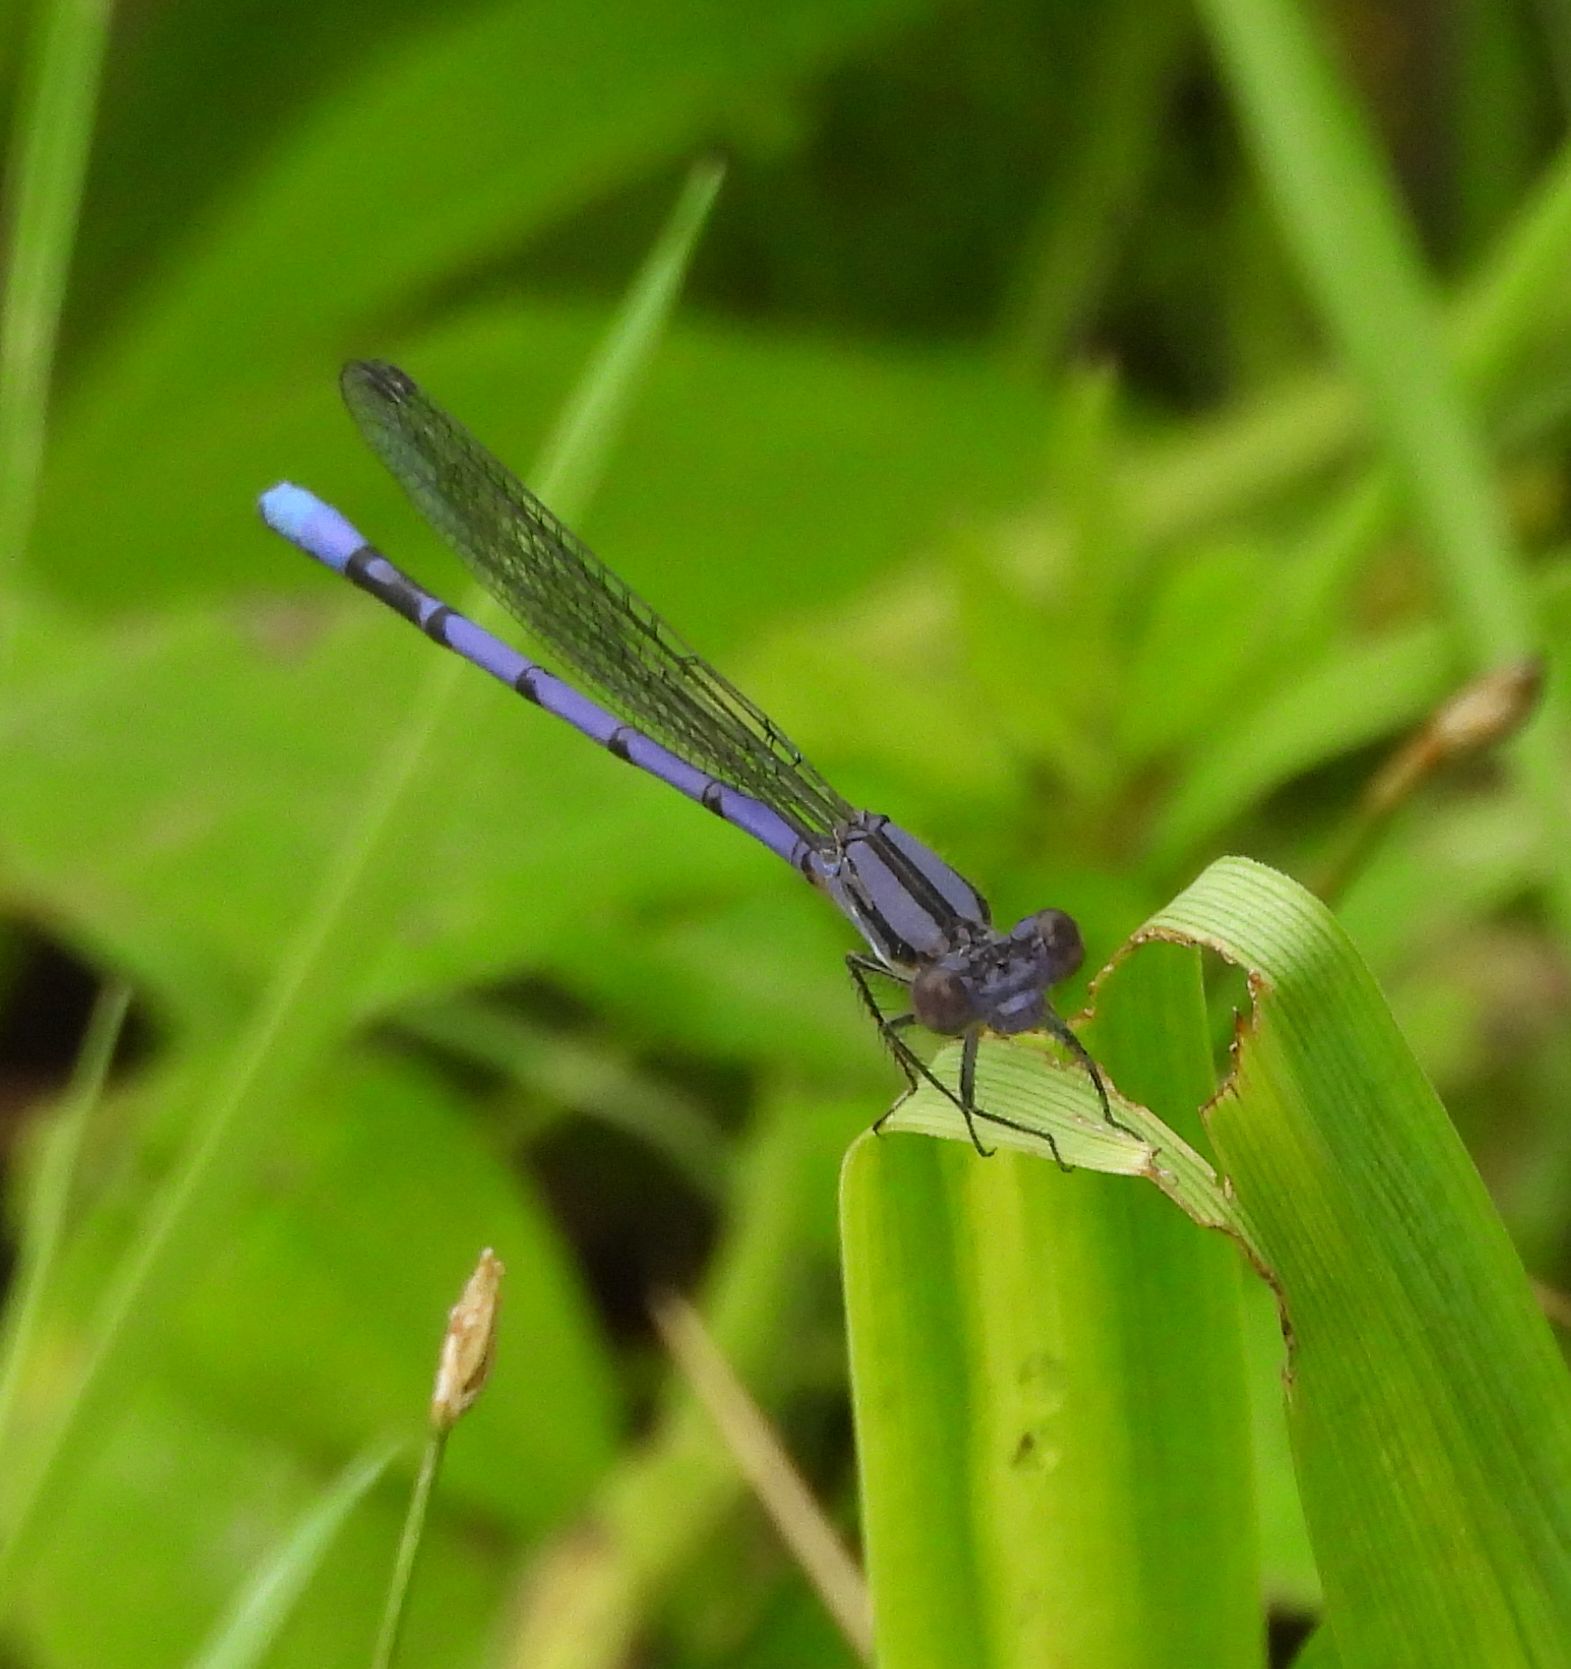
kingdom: Animalia
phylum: Arthropoda
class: Insecta
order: Odonata
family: Coenagrionidae
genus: Argia
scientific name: Argia fumipennis
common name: Variable dancer
